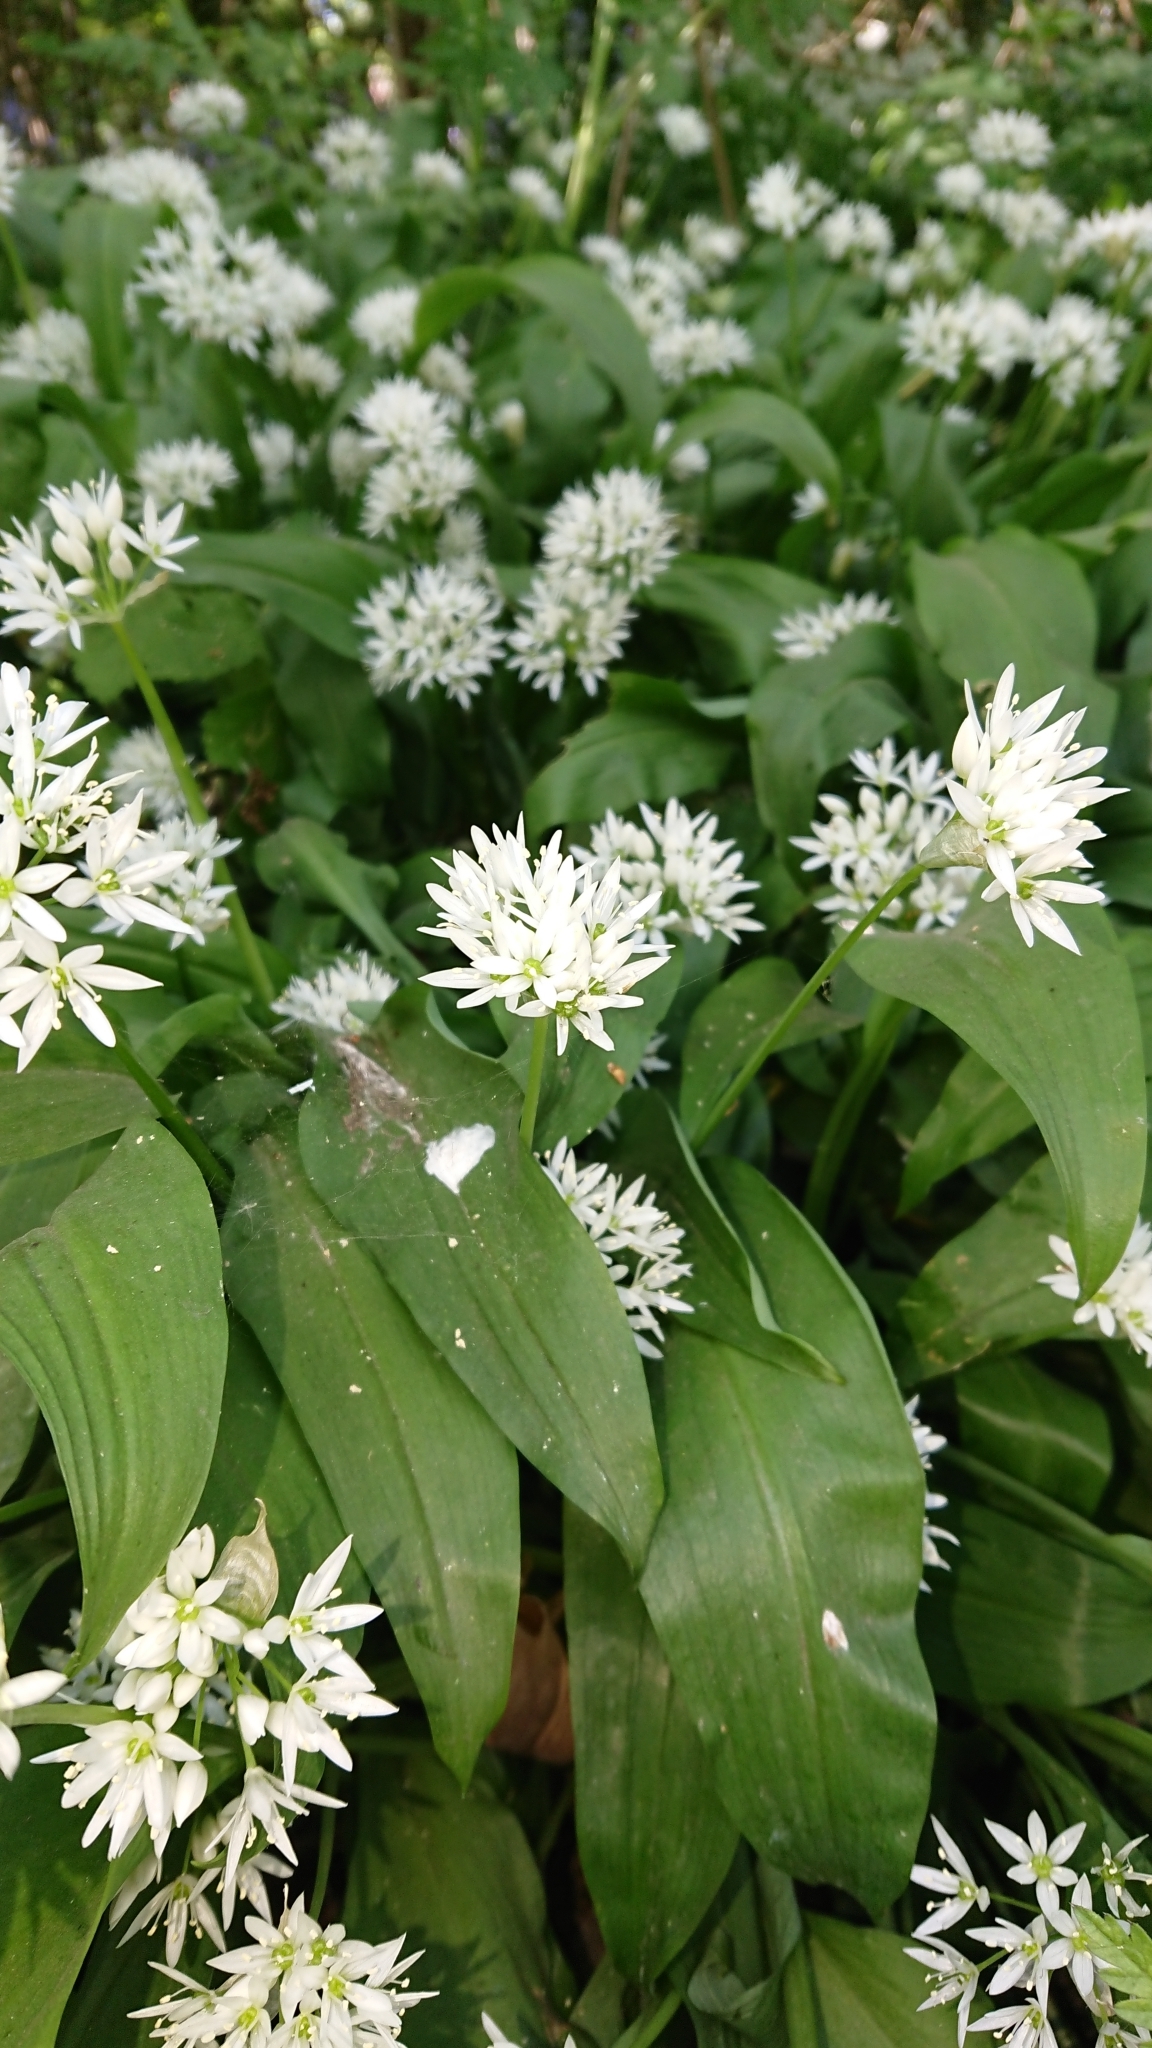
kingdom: Plantae
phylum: Tracheophyta
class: Liliopsida
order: Asparagales
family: Amaryllidaceae
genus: Allium
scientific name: Allium ursinum
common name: Ramsons
